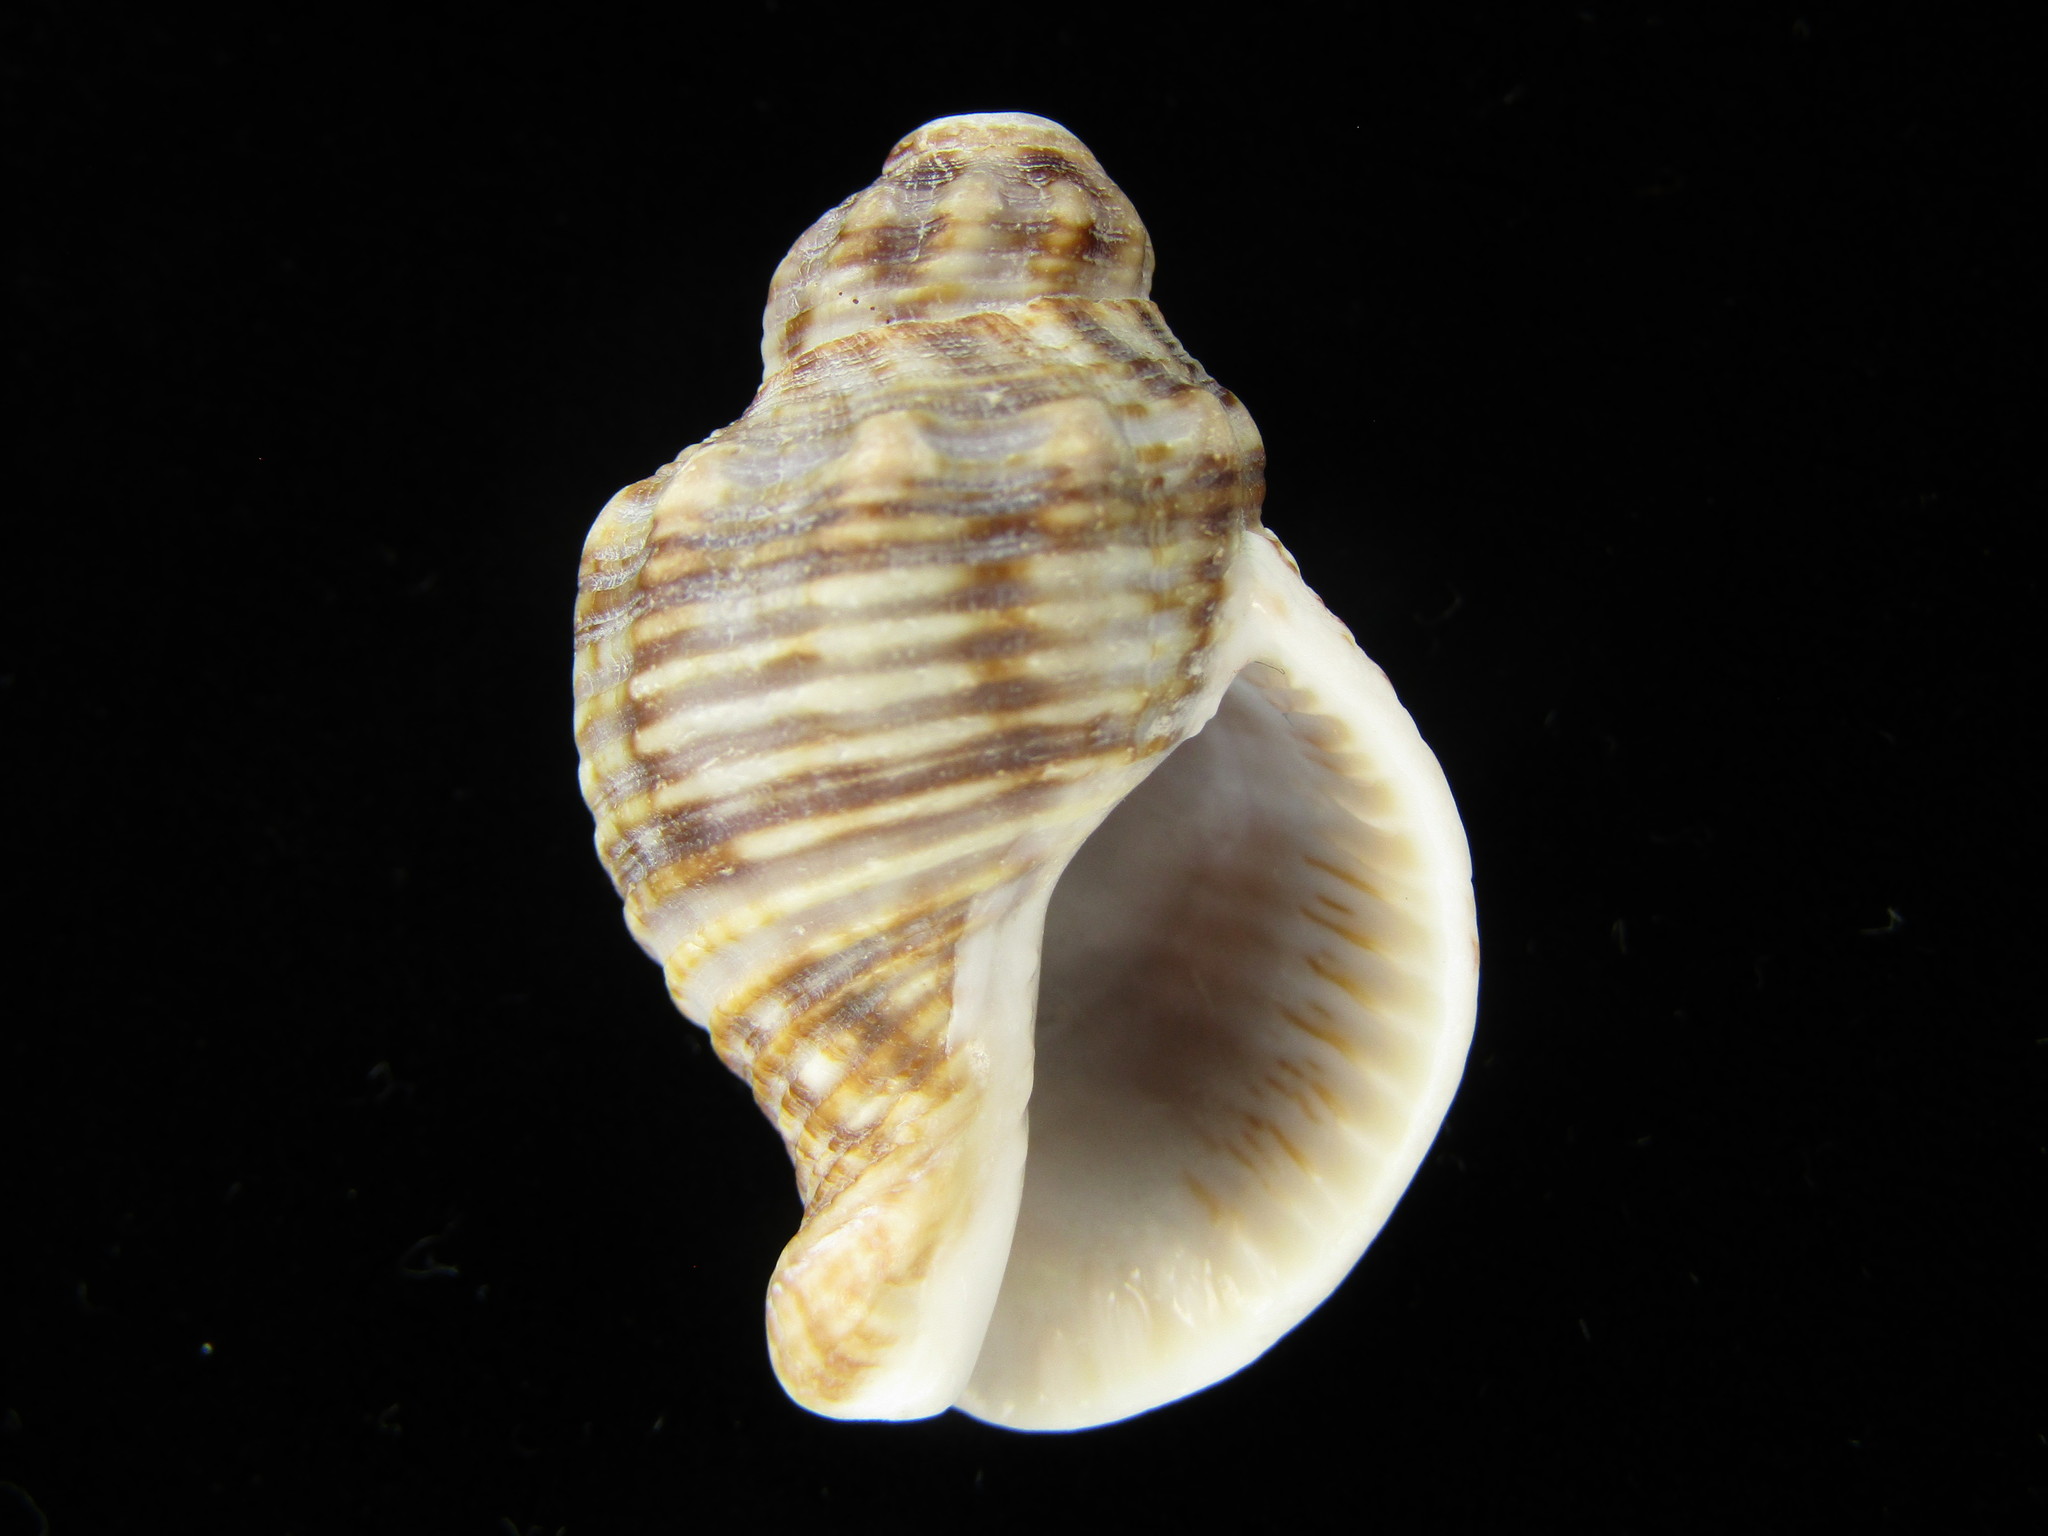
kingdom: Animalia
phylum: Mollusca
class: Gastropoda
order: Neogastropoda
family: Buccinidae
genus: Siphonalia
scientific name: Siphonalia cassidariaeformis
